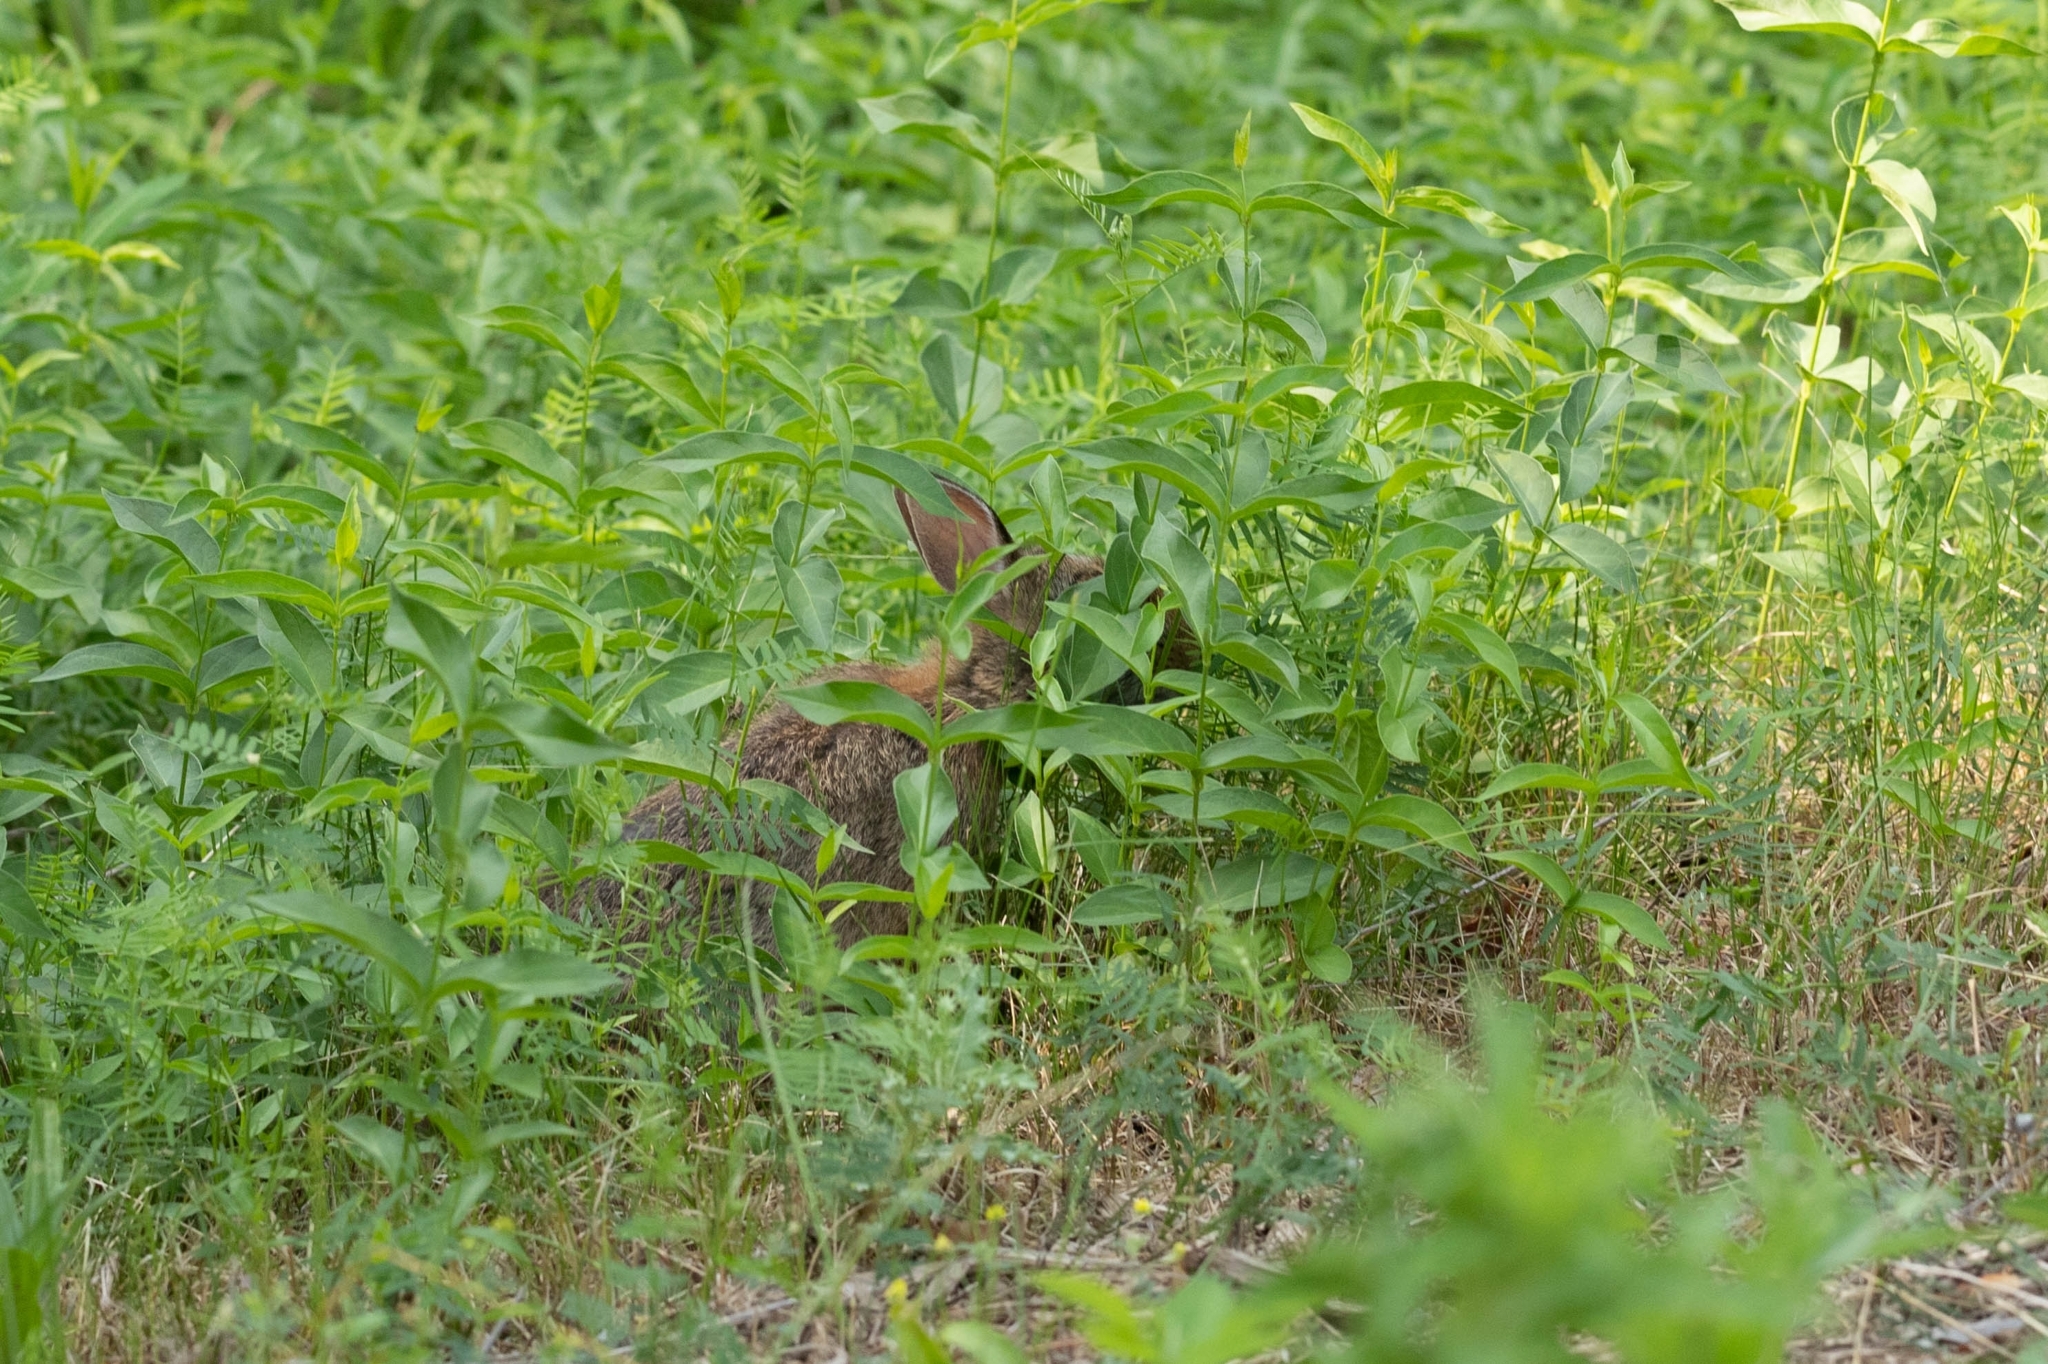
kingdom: Animalia
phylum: Chordata
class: Mammalia
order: Lagomorpha
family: Leporidae
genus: Sylvilagus
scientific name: Sylvilagus floridanus
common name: Eastern cottontail
